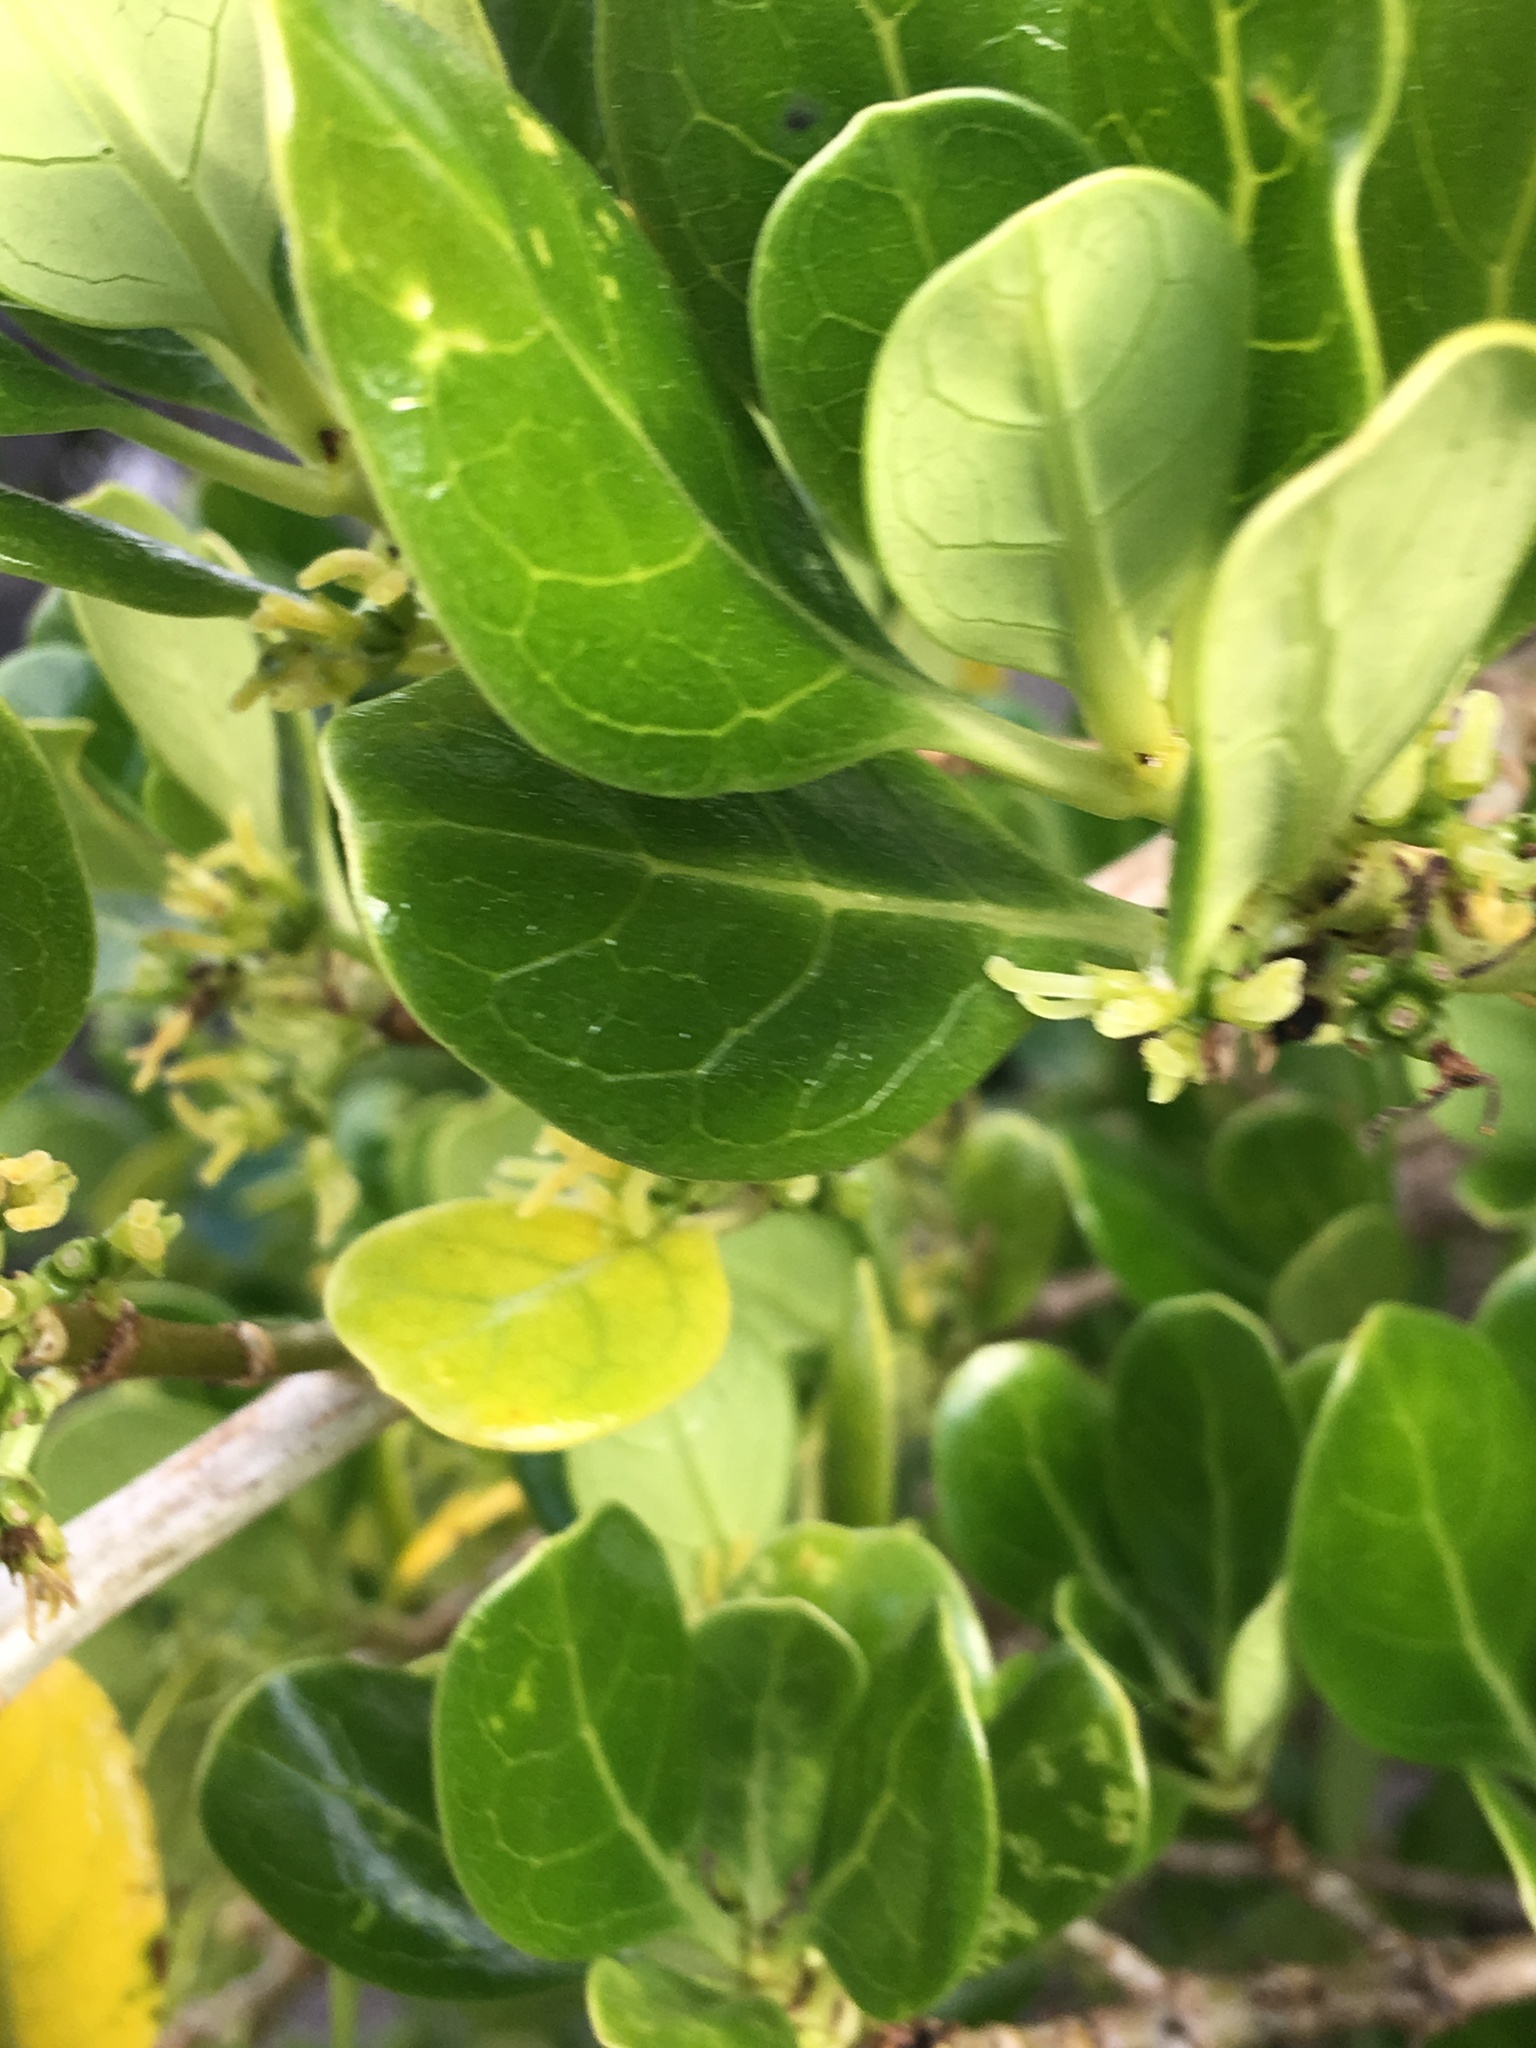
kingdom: Plantae
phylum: Tracheophyta
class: Magnoliopsida
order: Gentianales
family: Rubiaceae
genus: Coprosma
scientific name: Coprosma repens
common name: Tree bedstraw
